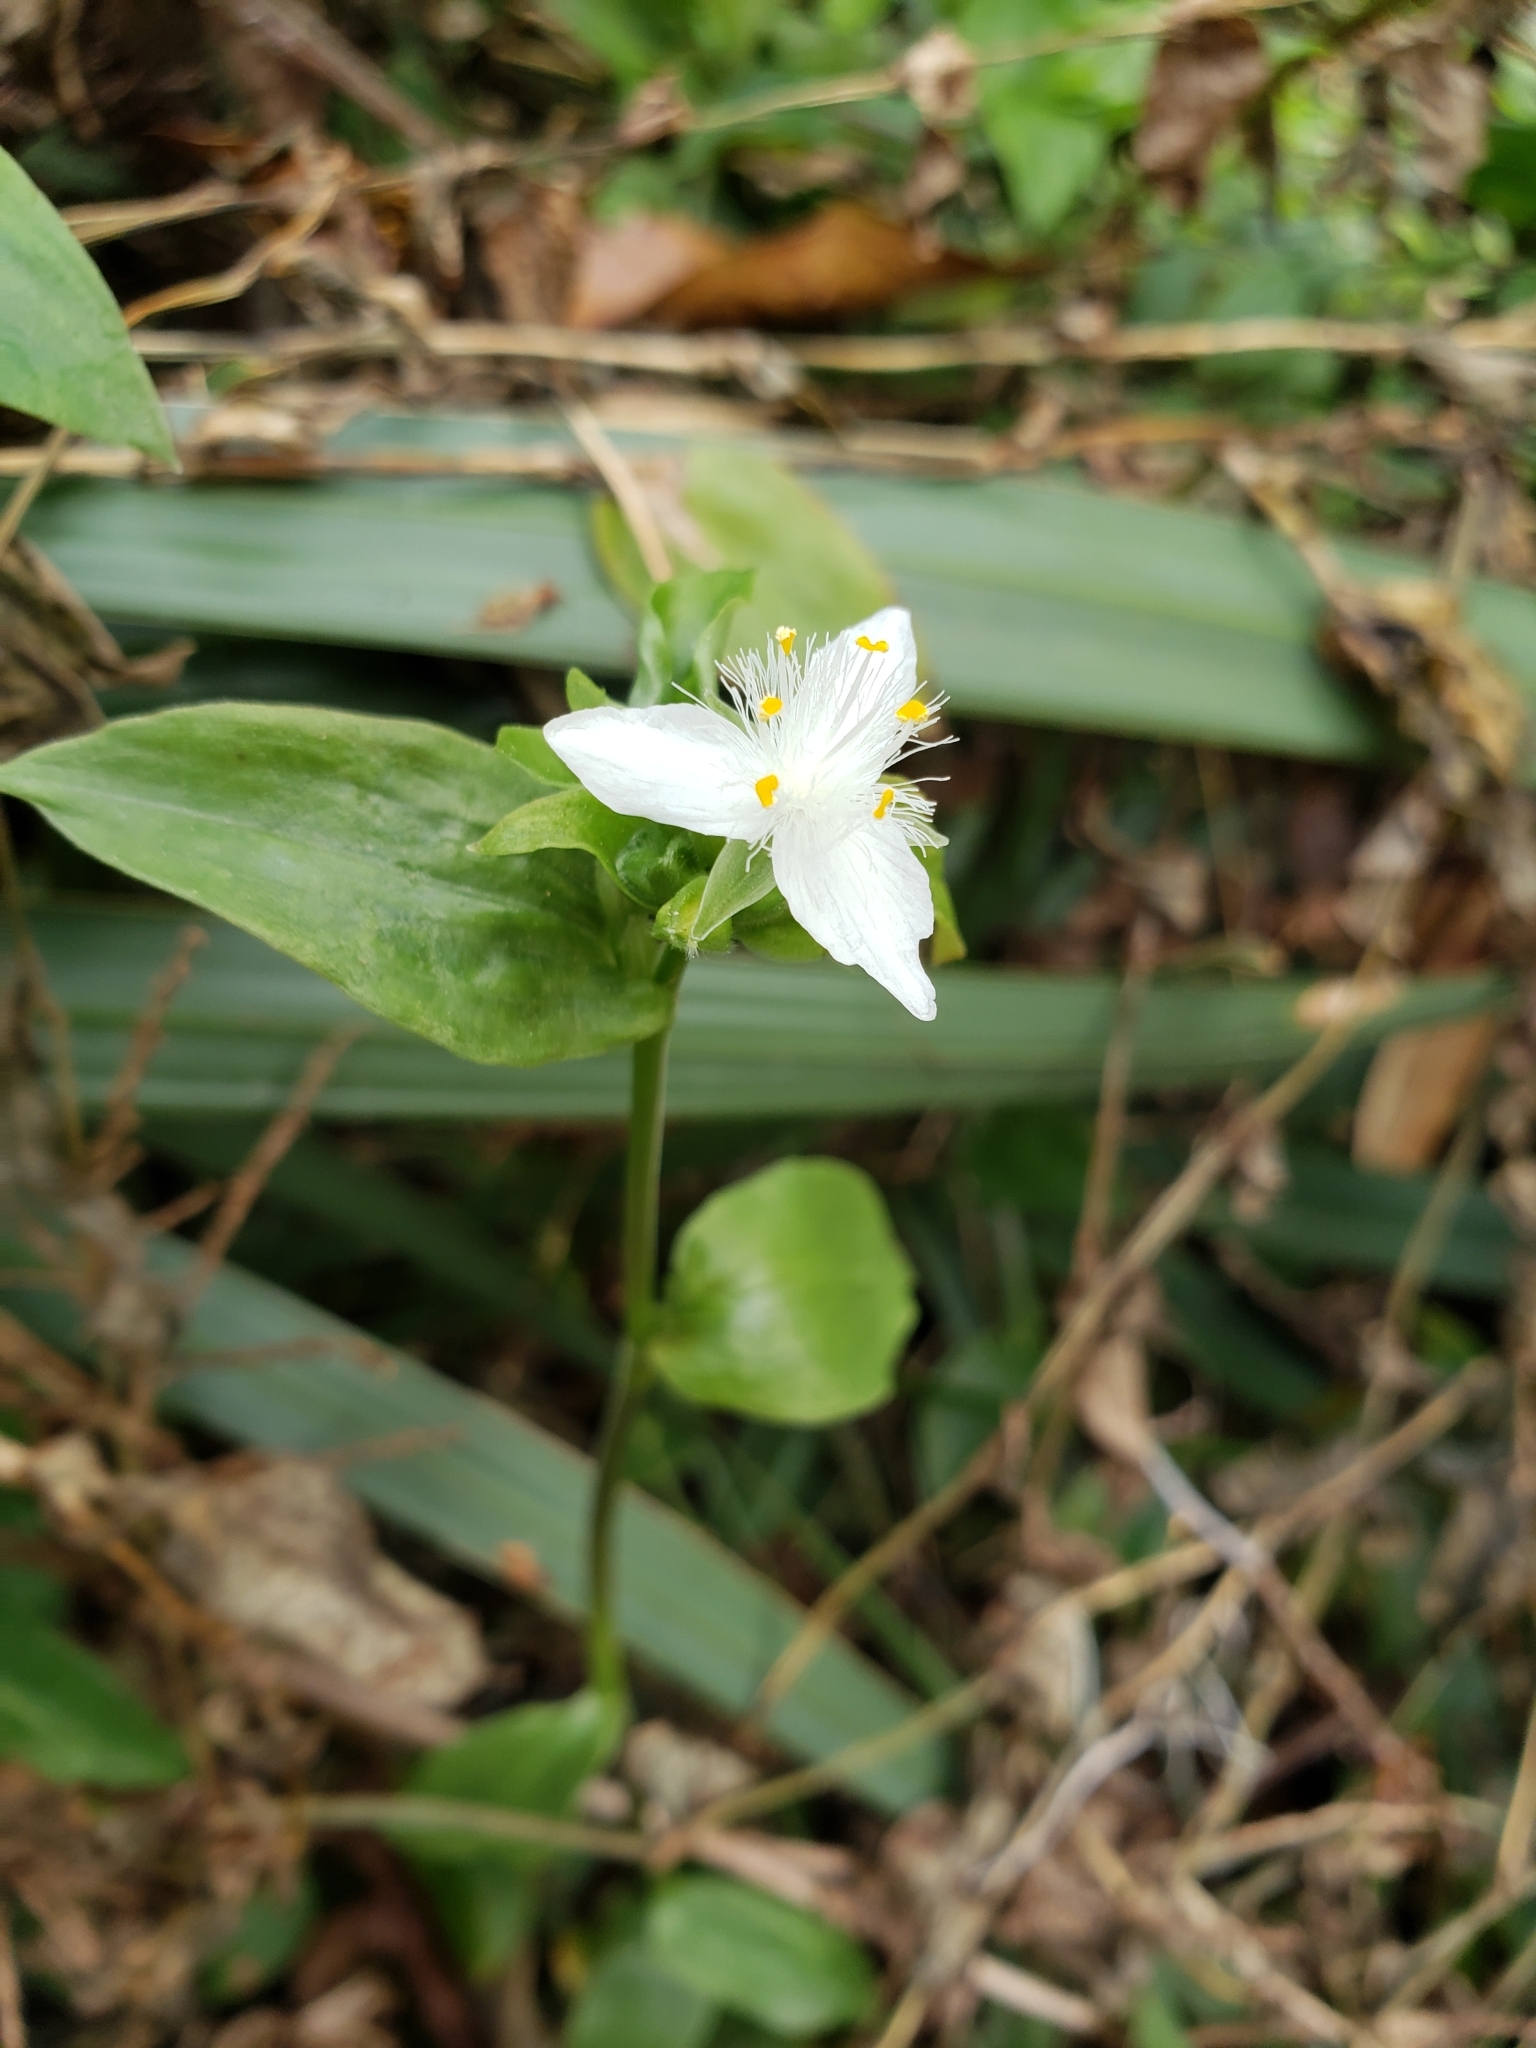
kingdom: Plantae
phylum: Tracheophyta
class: Liliopsida
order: Commelinales
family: Commelinaceae
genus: Tradescantia
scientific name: Tradescantia fluminensis
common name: Wandering-jew
